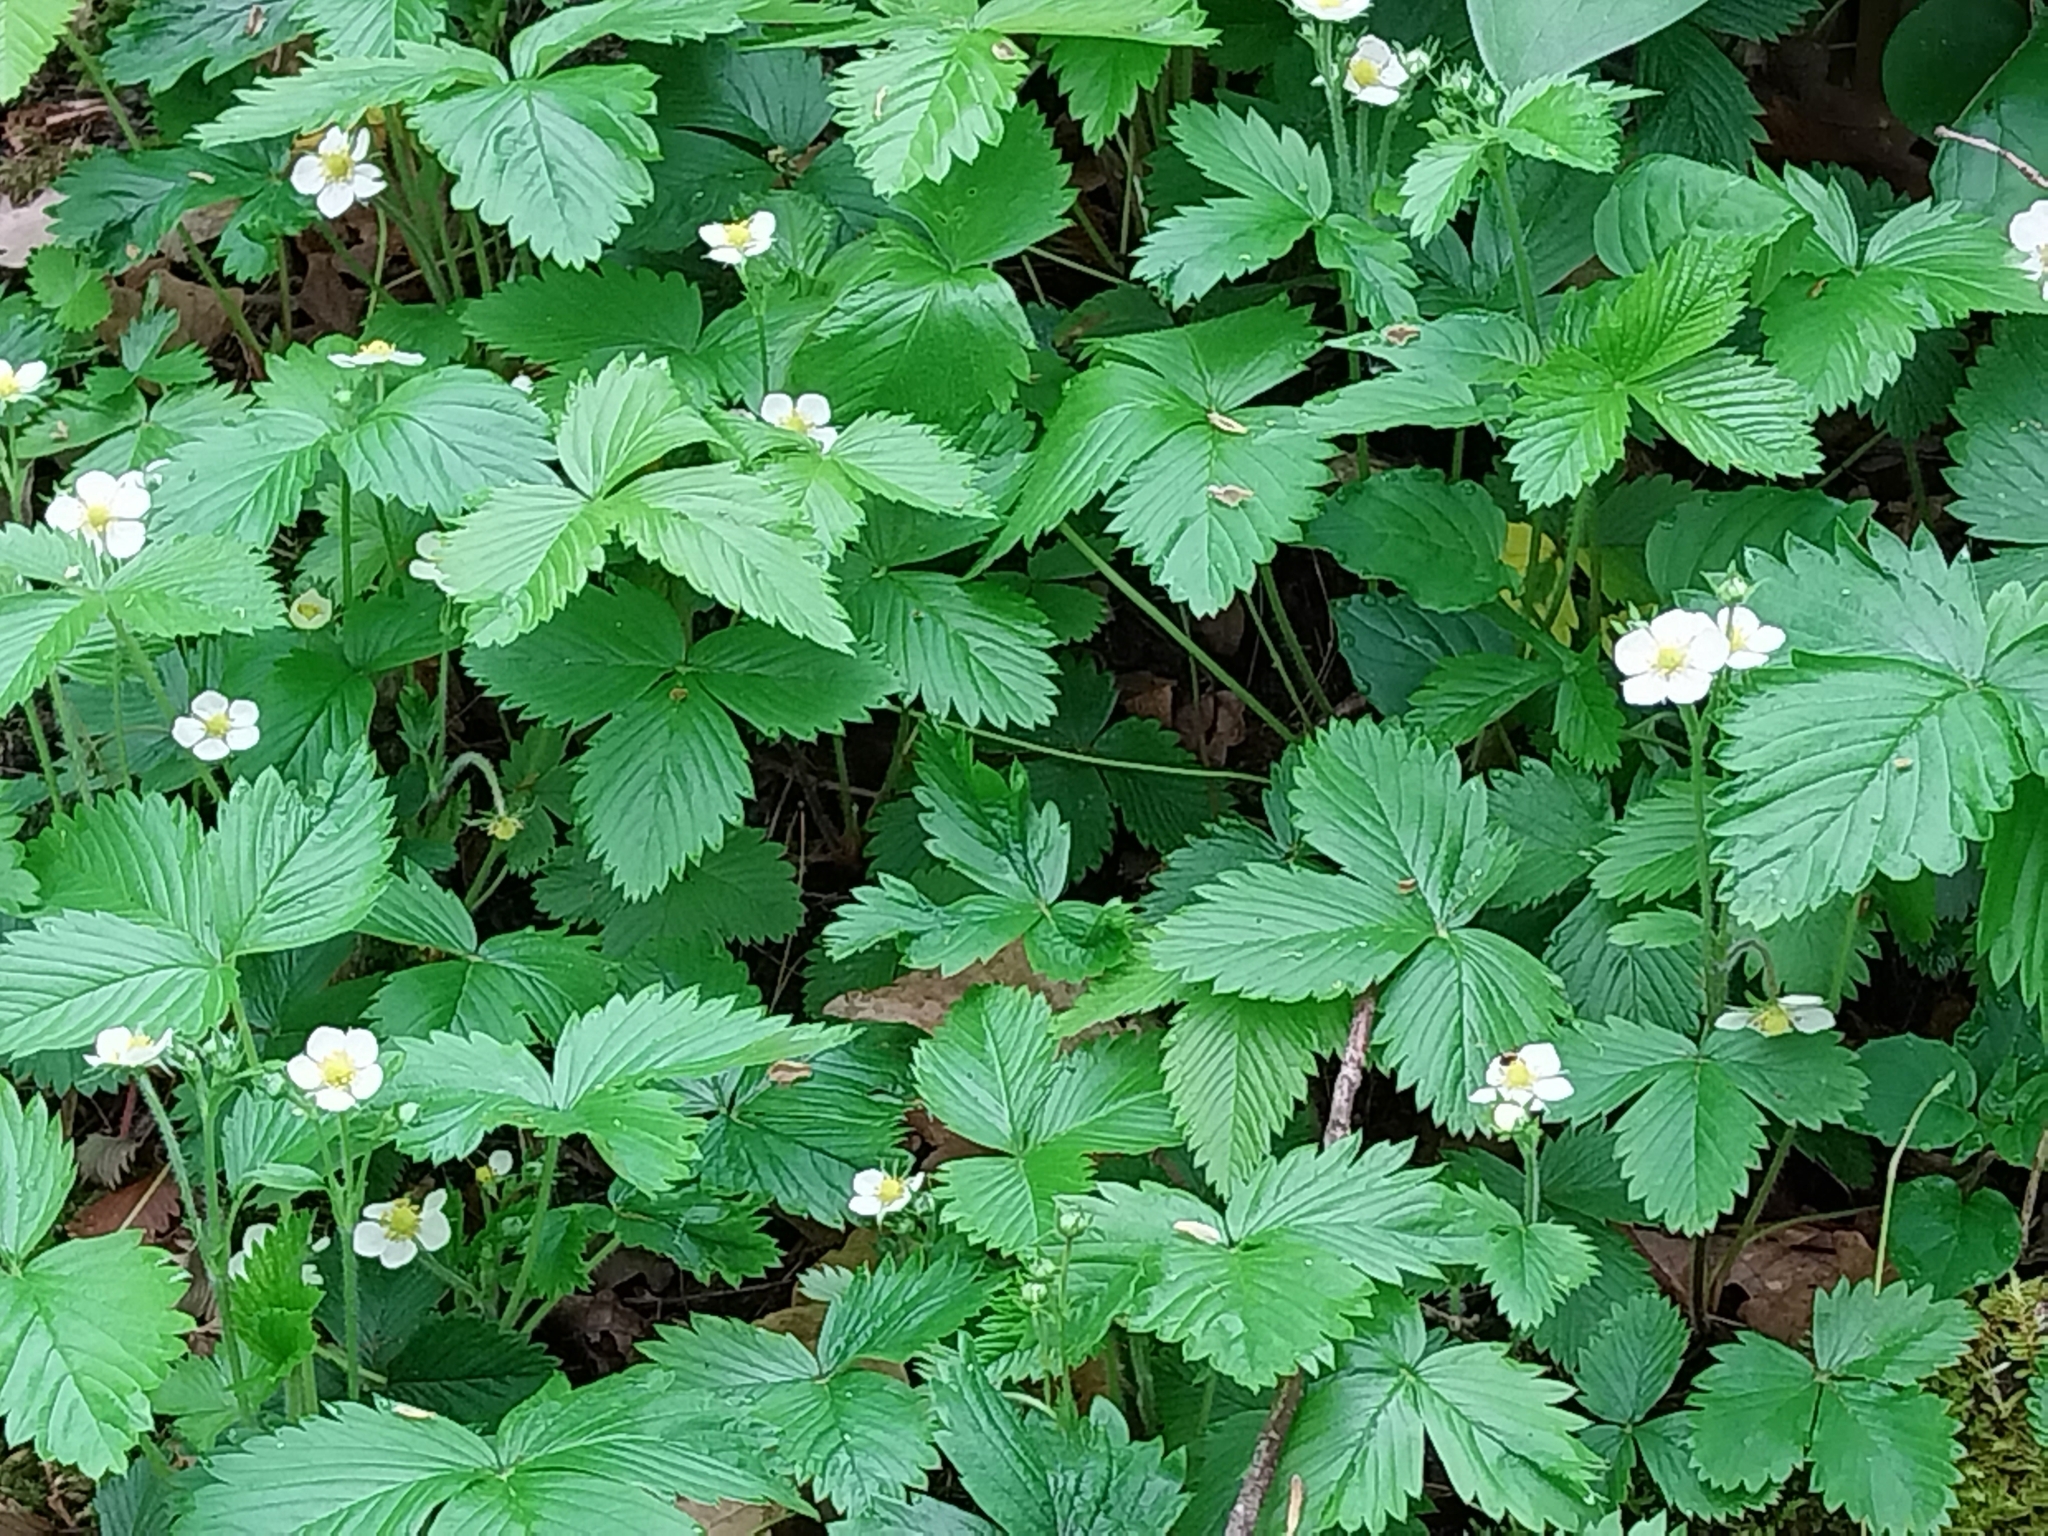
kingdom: Plantae
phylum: Tracheophyta
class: Magnoliopsida
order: Rosales
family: Rosaceae
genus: Fragaria
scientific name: Fragaria vesca
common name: Wild strawberry
